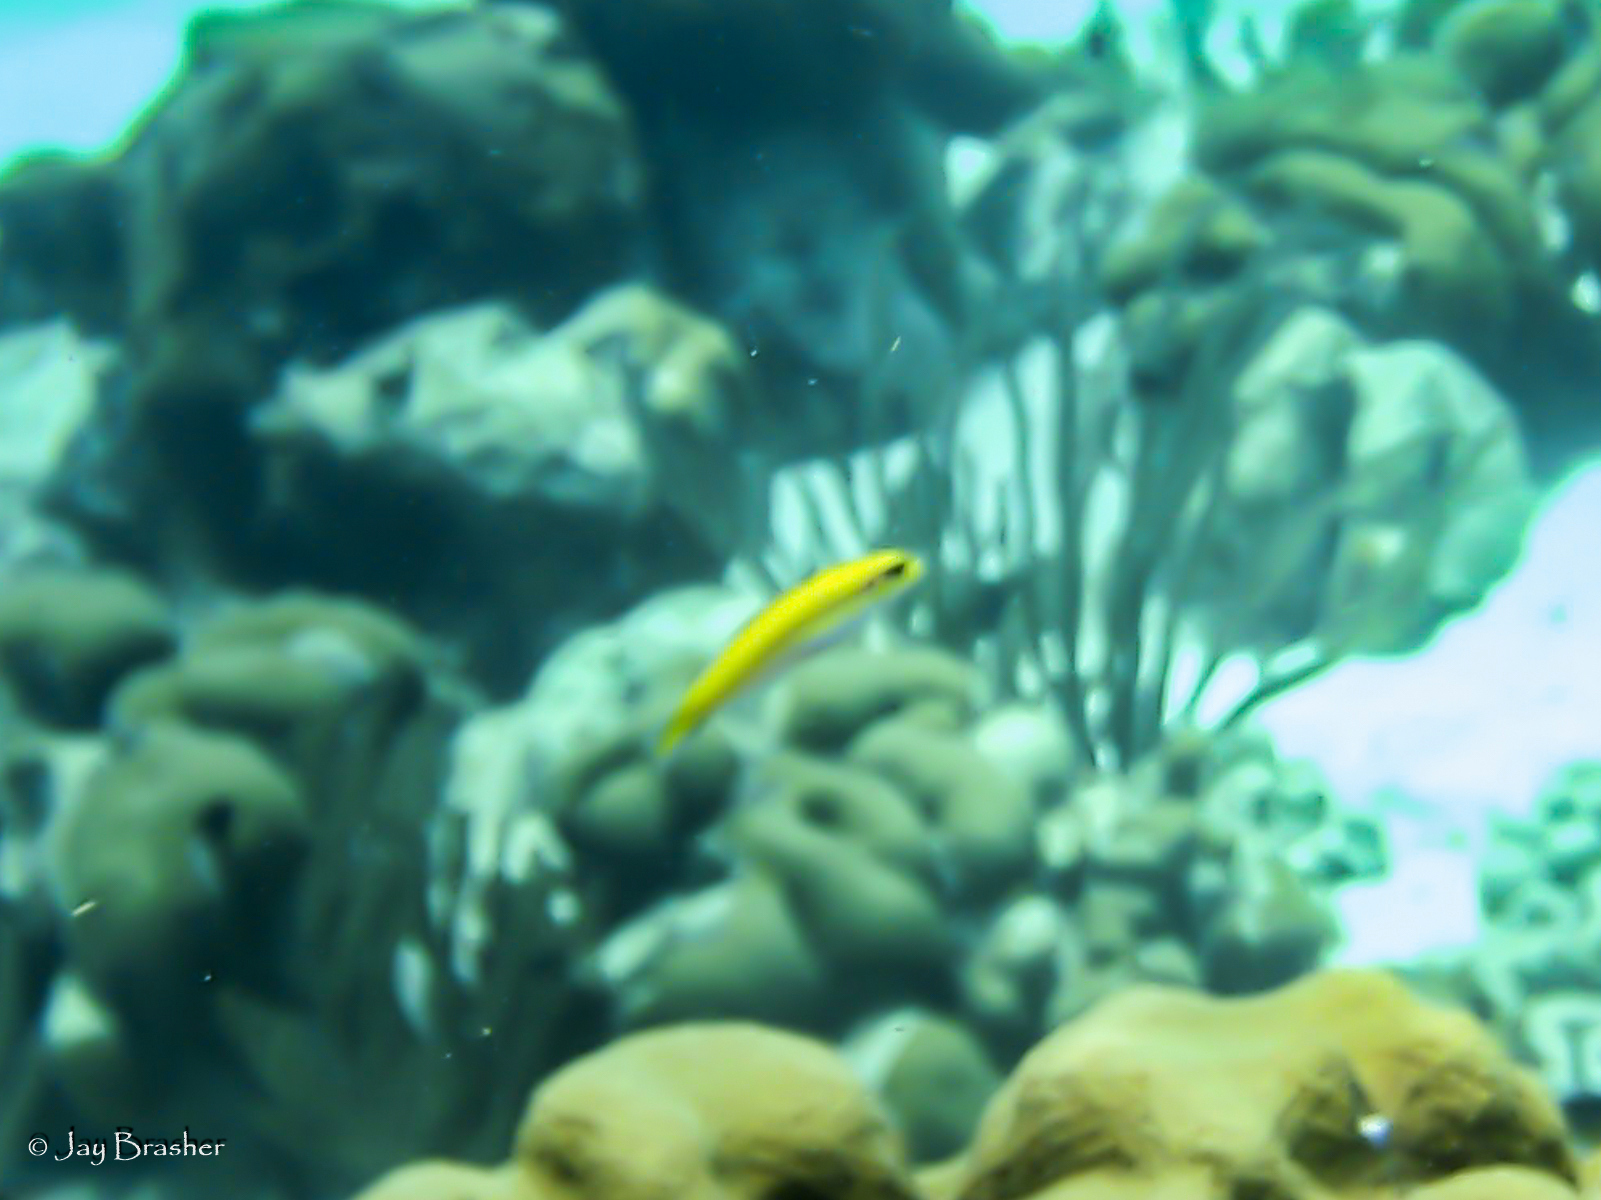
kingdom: Animalia
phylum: Chordata
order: Perciformes
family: Labridae
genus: Thalassoma
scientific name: Thalassoma bifasciatum
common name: Bluehead wrasse
